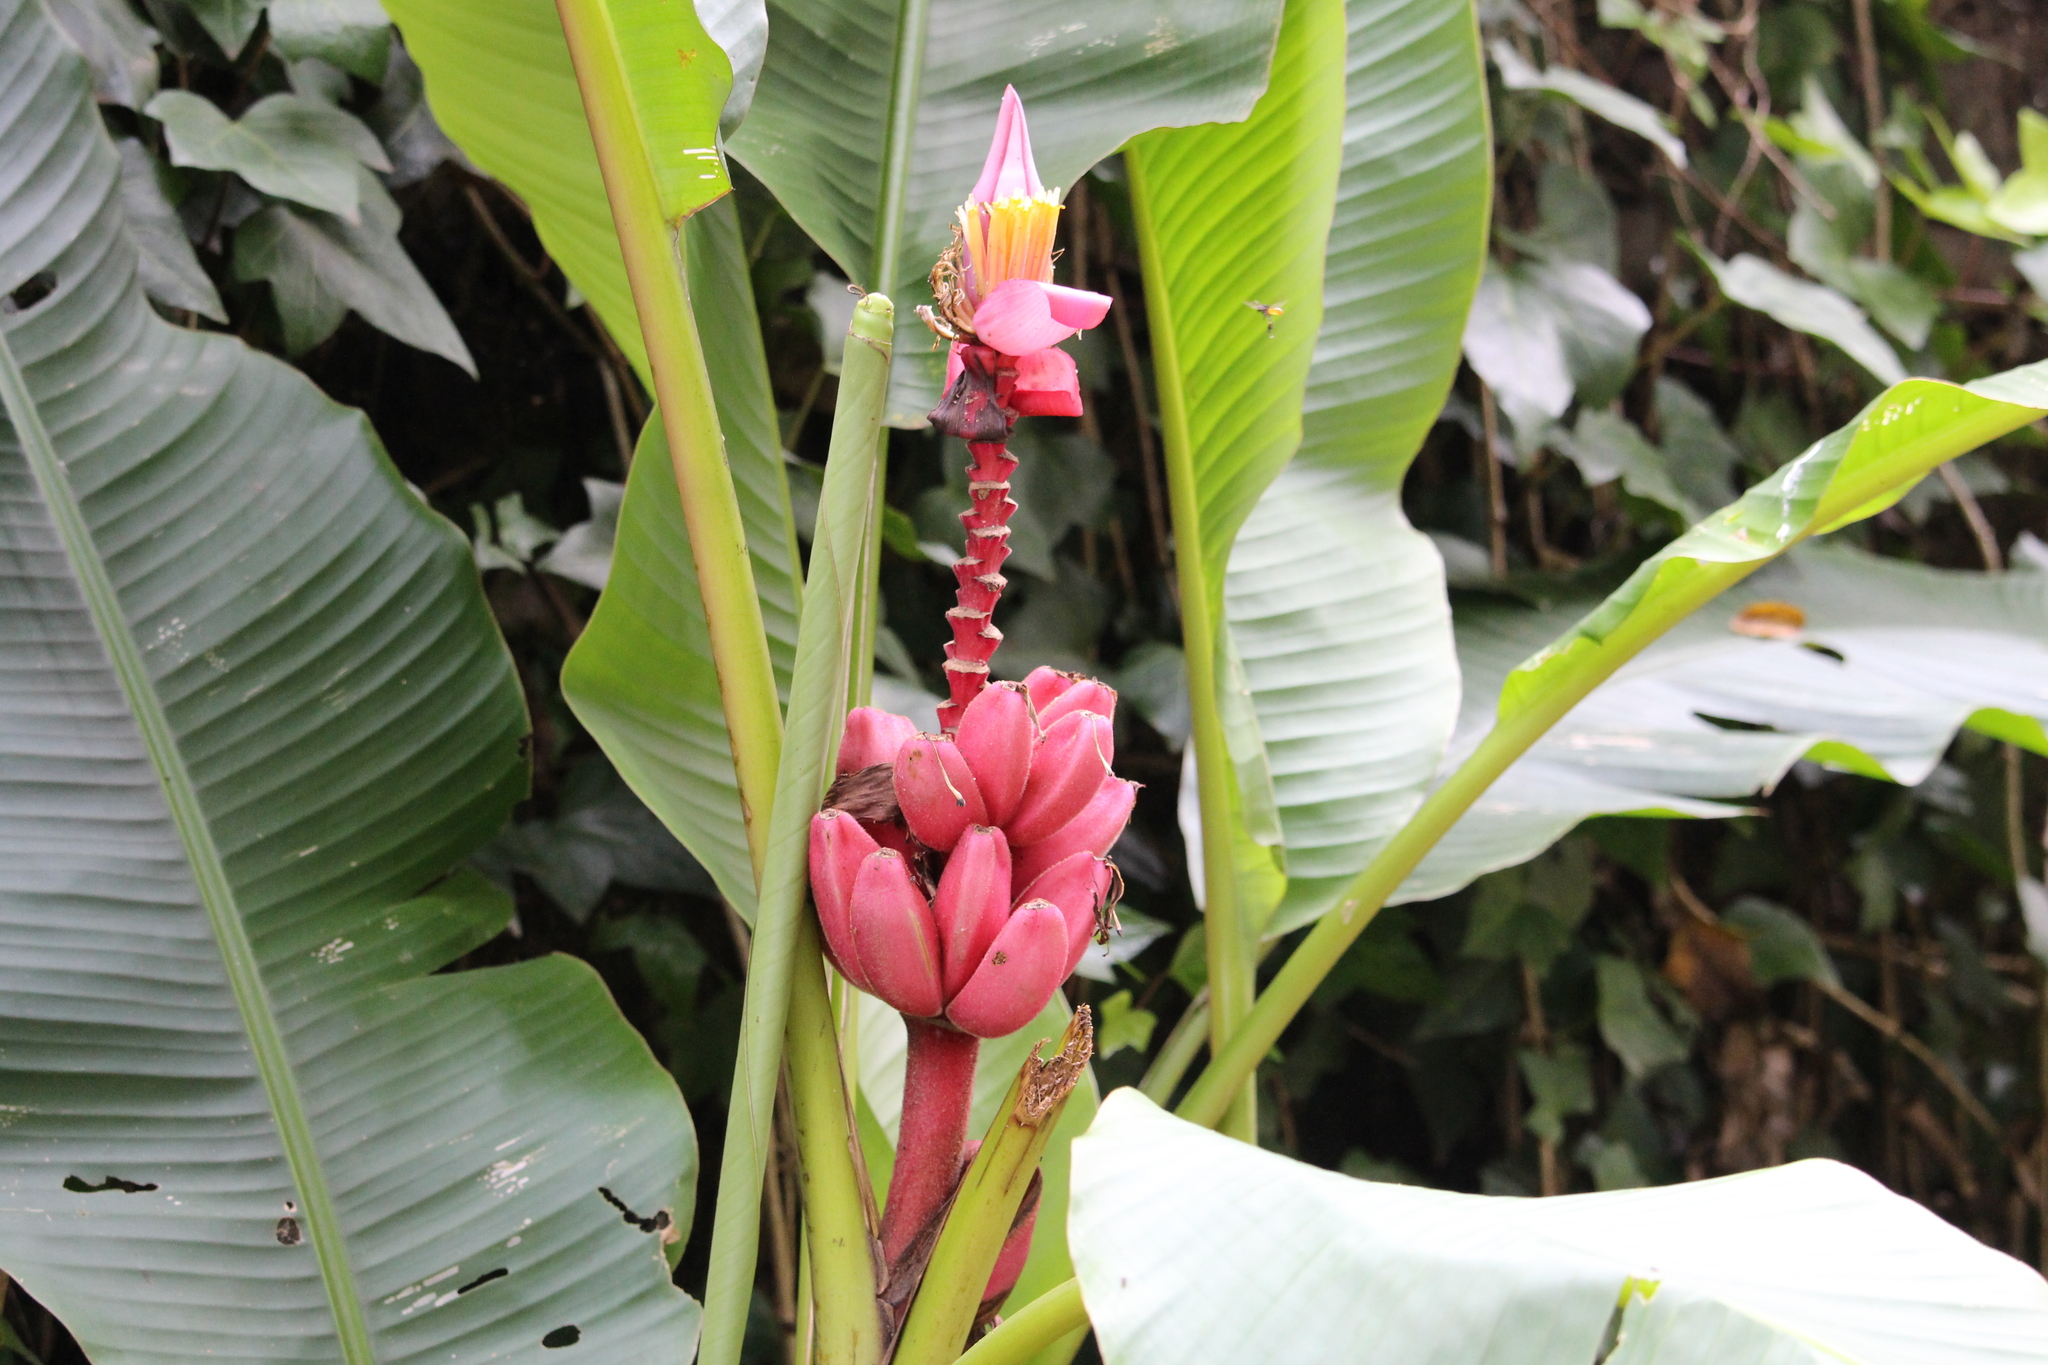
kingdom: Plantae
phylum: Tracheophyta
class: Liliopsida
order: Zingiberales
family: Musaceae
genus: Musa
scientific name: Musa velutina
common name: Pink velvet banana
